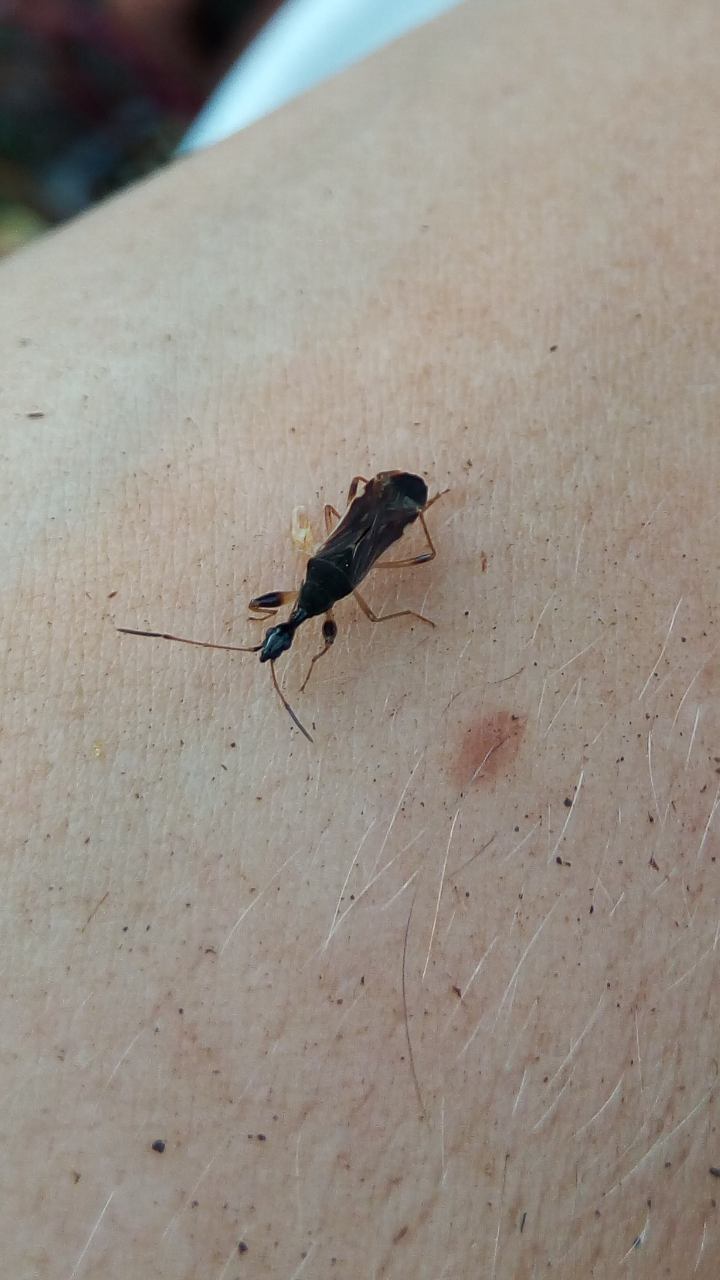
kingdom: Animalia
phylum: Arthropoda
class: Insecta
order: Hemiptera
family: Rhyparochromidae
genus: Myodocha
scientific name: Myodocha serripes
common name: Long-necked seed bug
